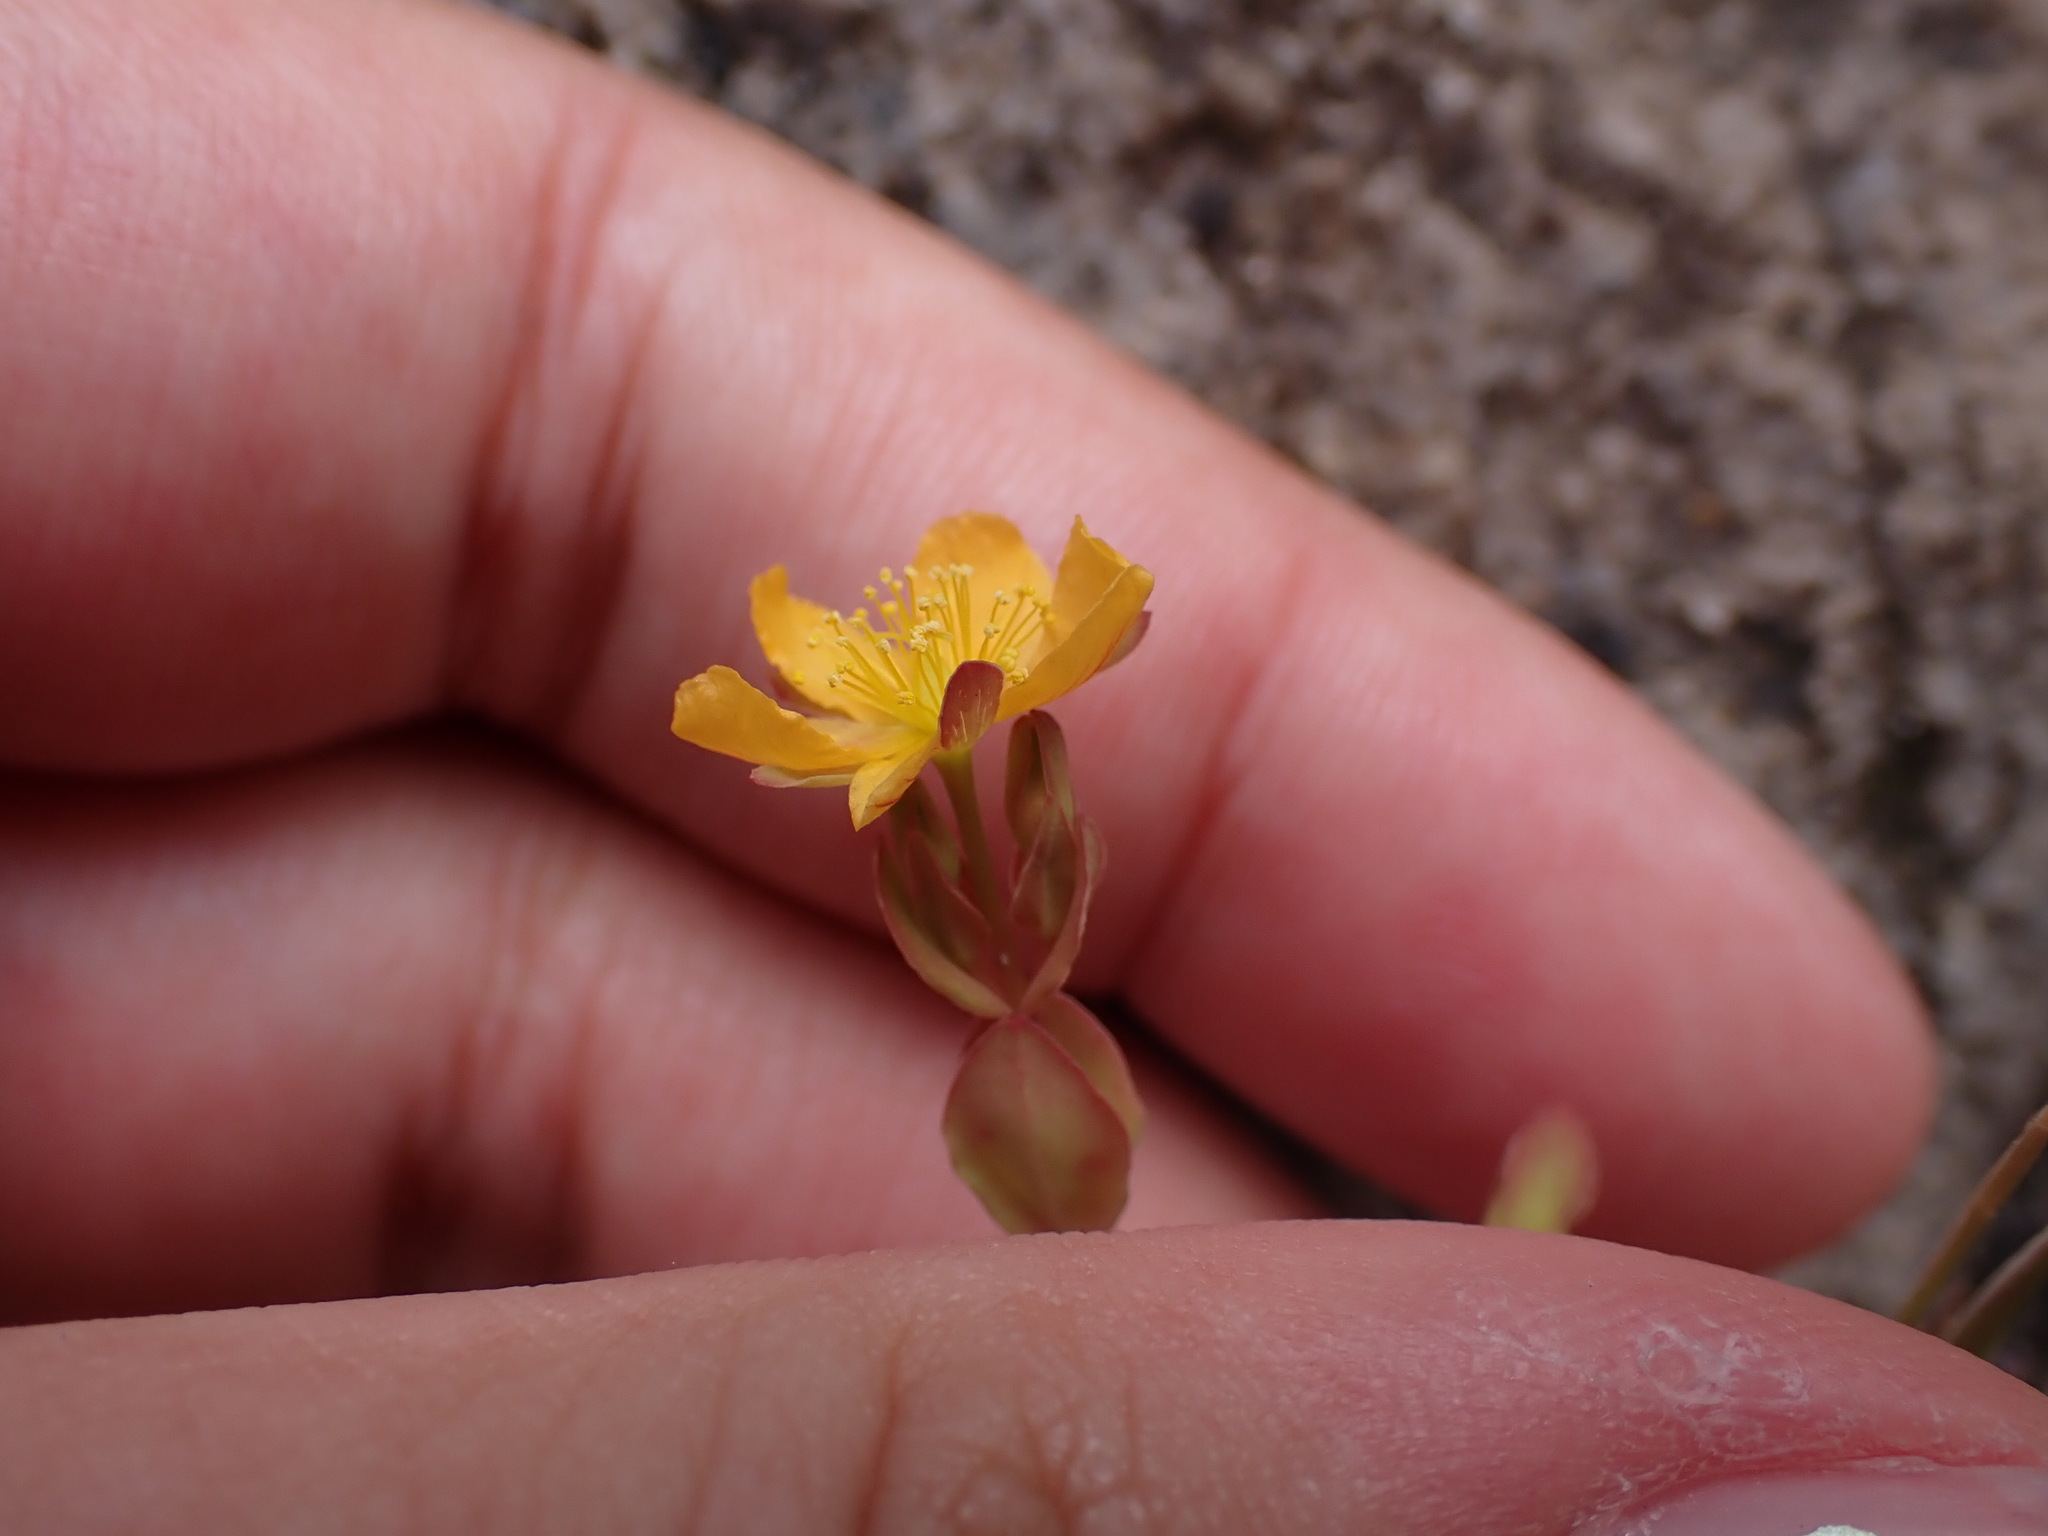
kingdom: Plantae
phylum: Tracheophyta
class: Magnoliopsida
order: Malpighiales
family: Hypericaceae
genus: Hypericum
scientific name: Hypericum anagalloides
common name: Bog st. john's-wort
